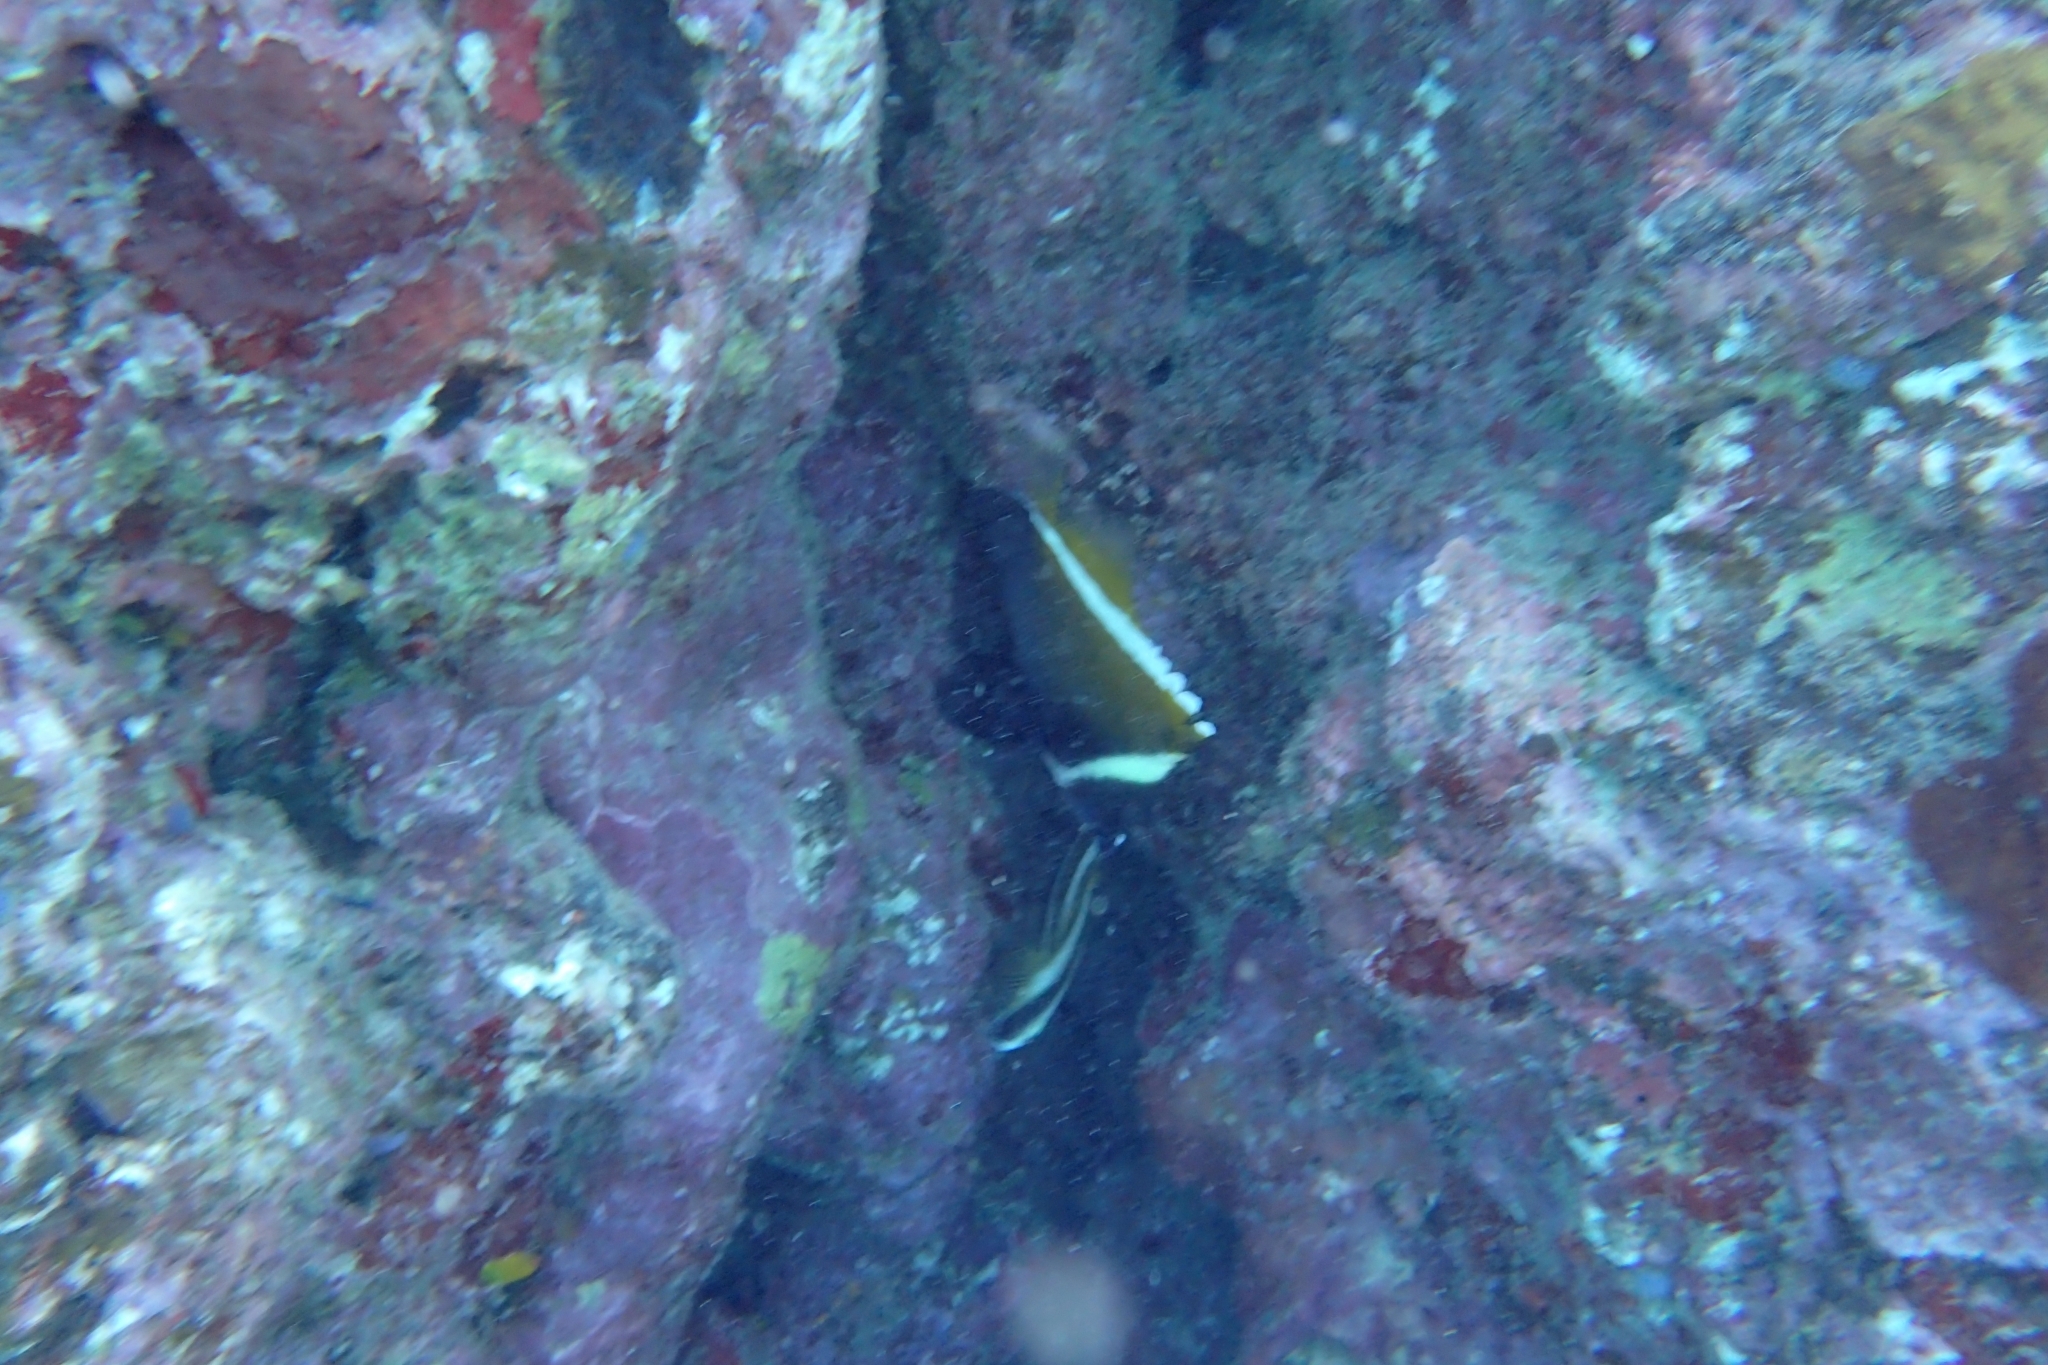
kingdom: Animalia
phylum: Chordata
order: Perciformes
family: Chaetodontidae
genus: Heniochus
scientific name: Heniochus varius
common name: Horned bannerfish
